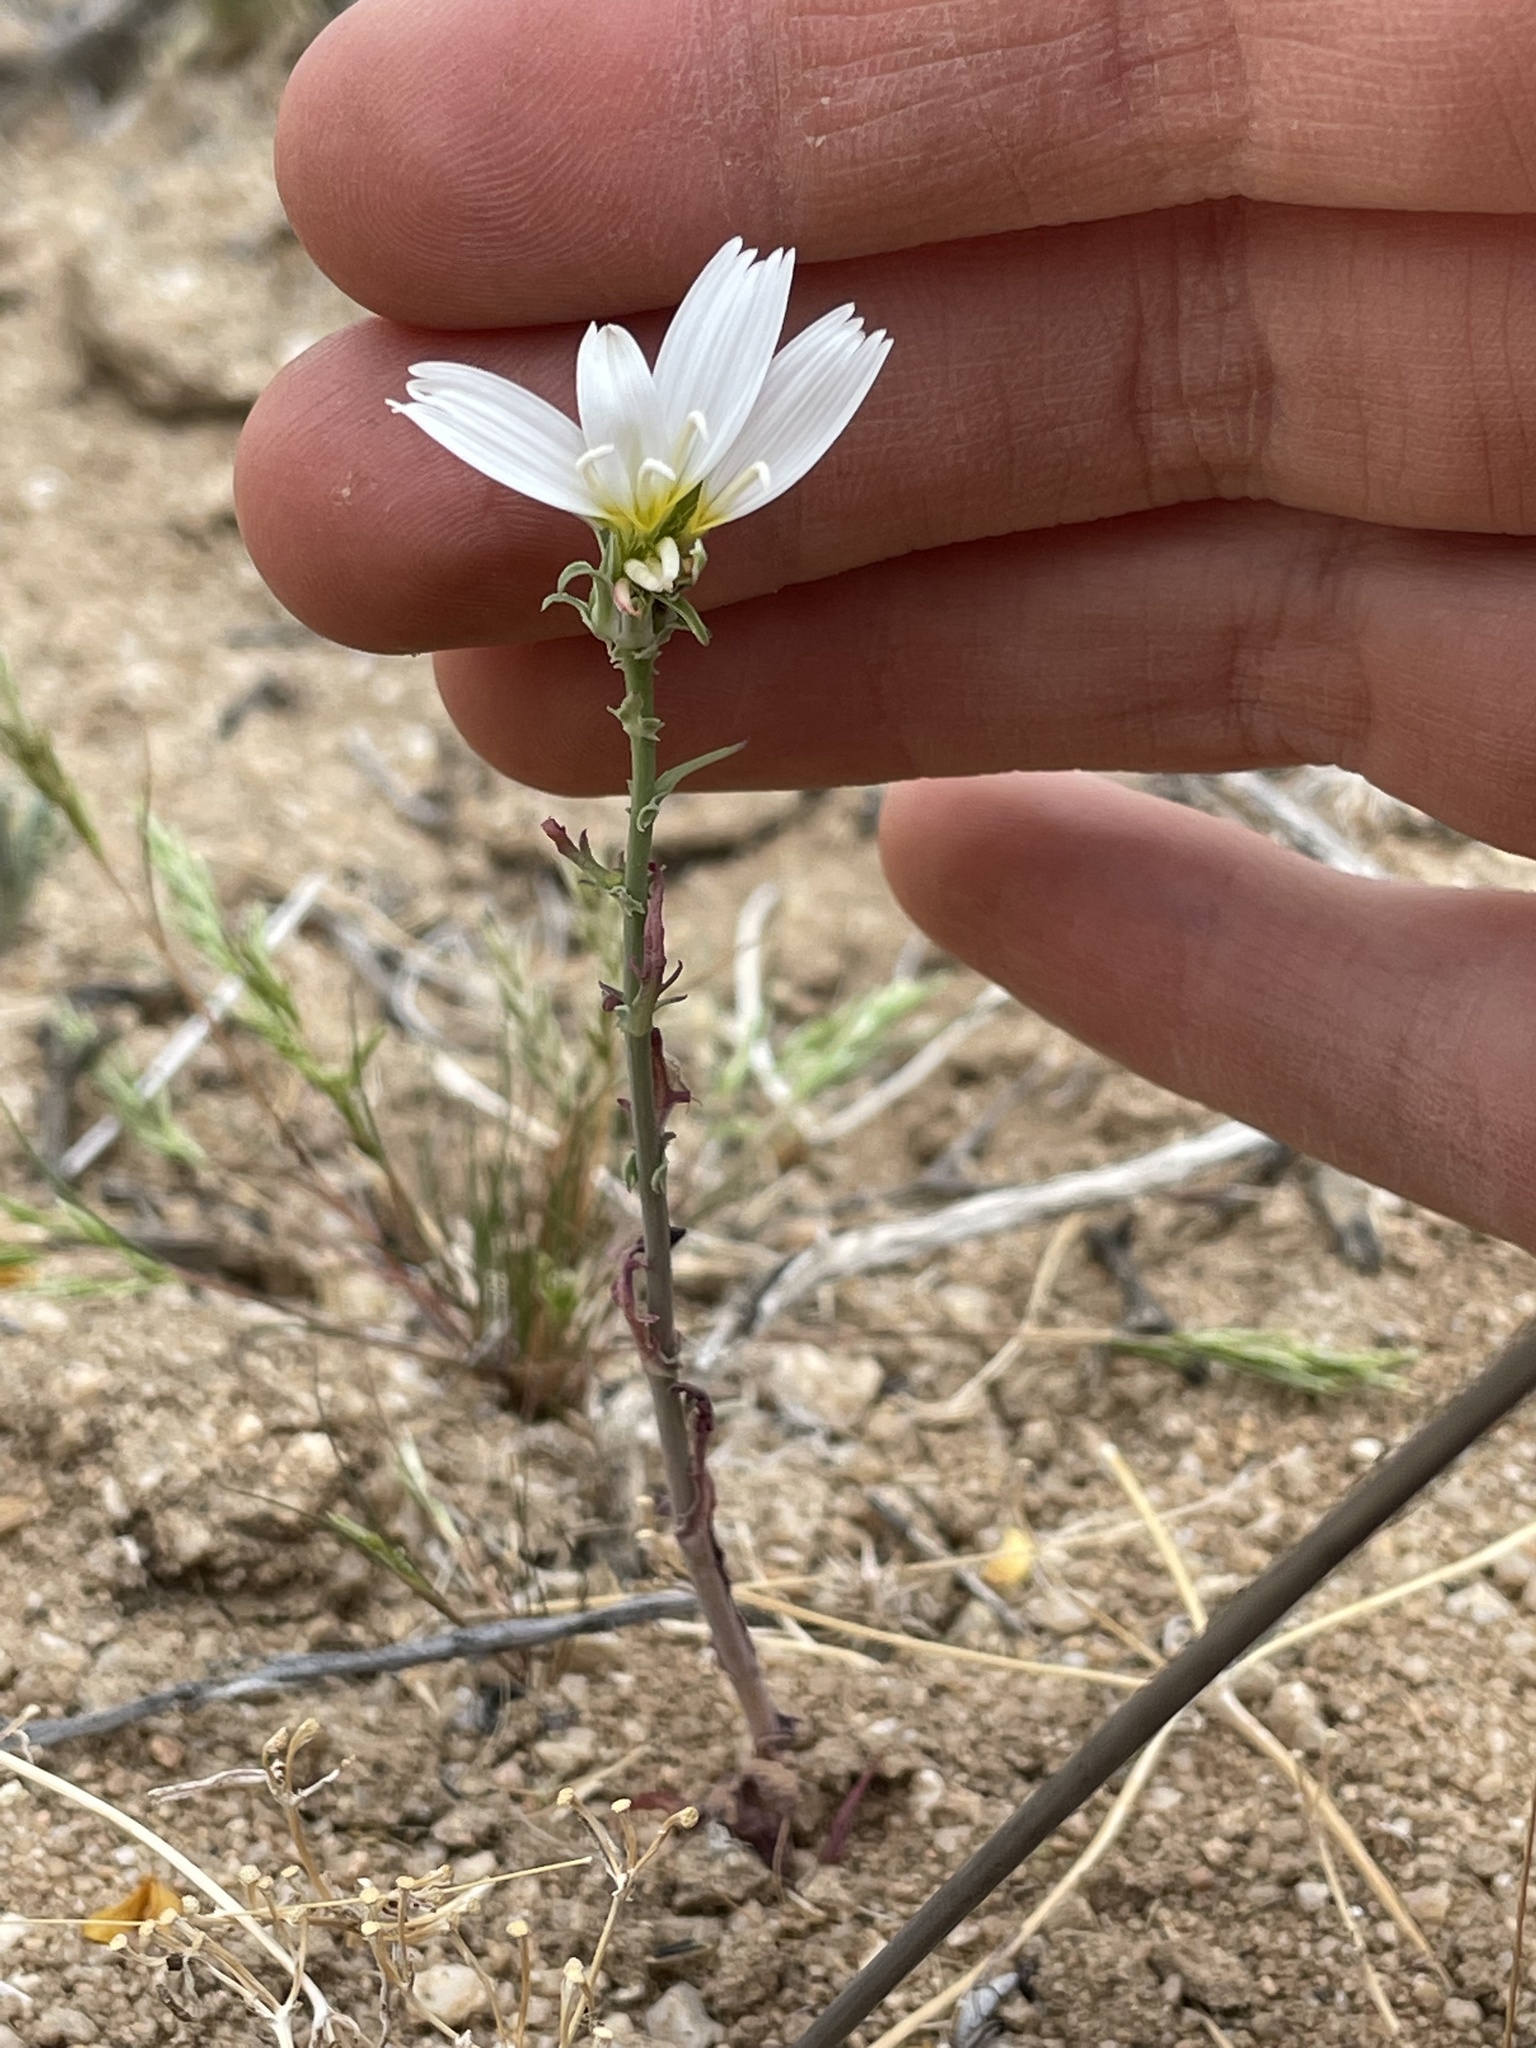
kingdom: Plantae
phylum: Tracheophyta
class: Magnoliopsida
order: Asterales
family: Asteraceae
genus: Rafinesquia
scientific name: Rafinesquia neomexicana
